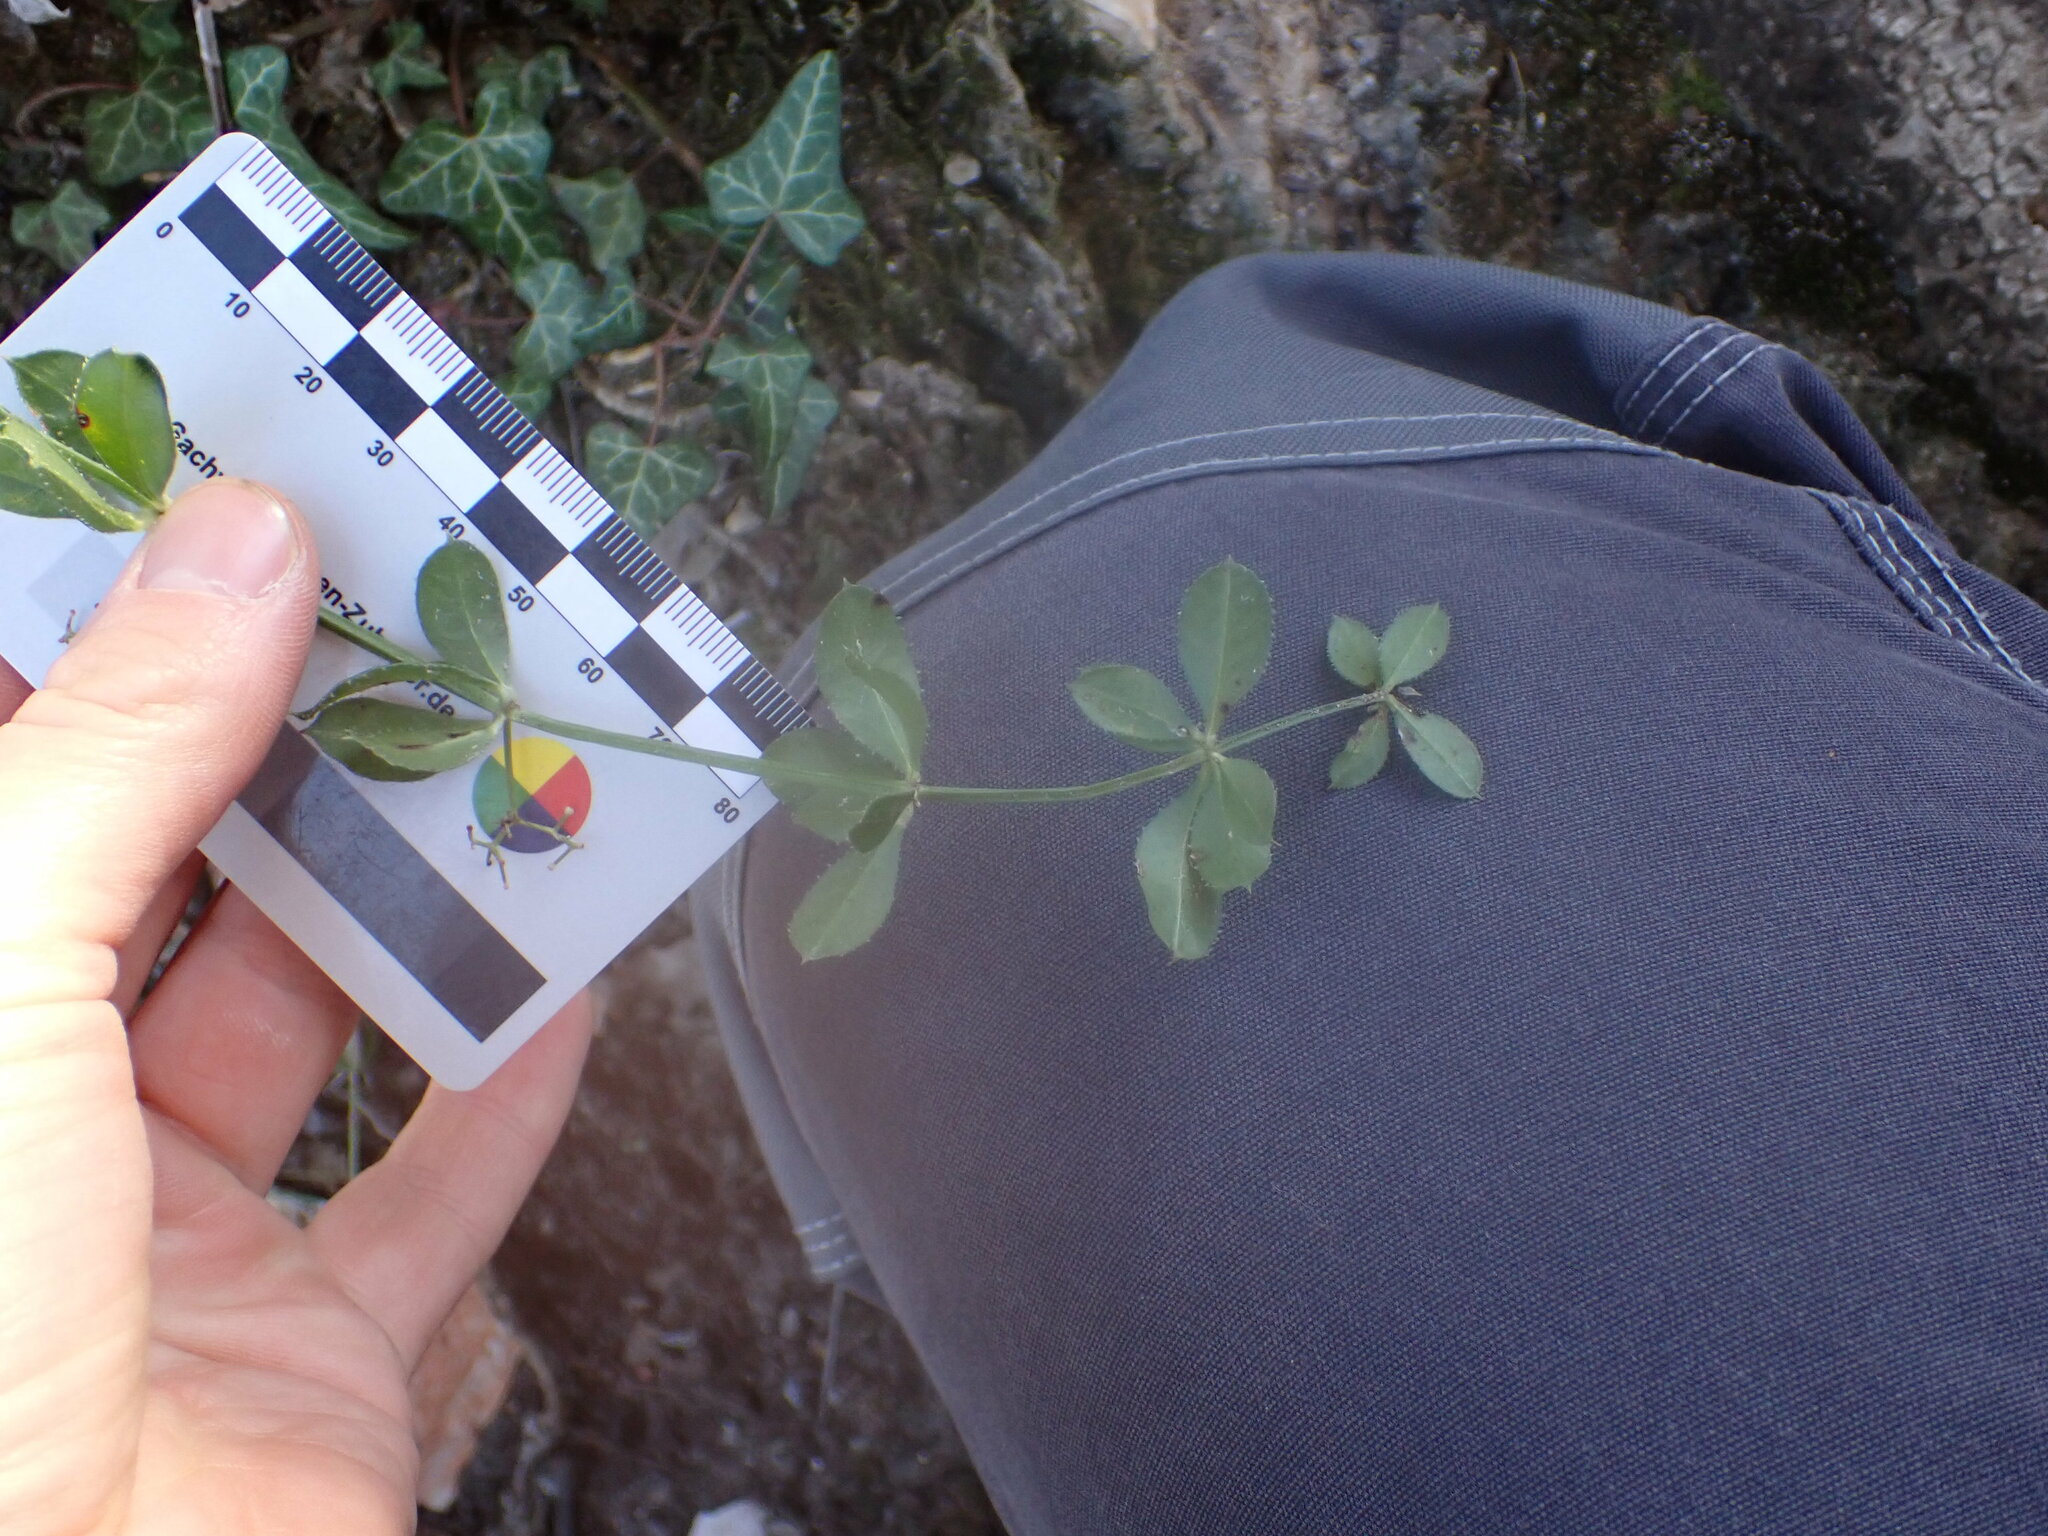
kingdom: Plantae
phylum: Tracheophyta
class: Magnoliopsida
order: Gentianales
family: Rubiaceae
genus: Rubia
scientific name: Rubia peregrina
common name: Wild madder
